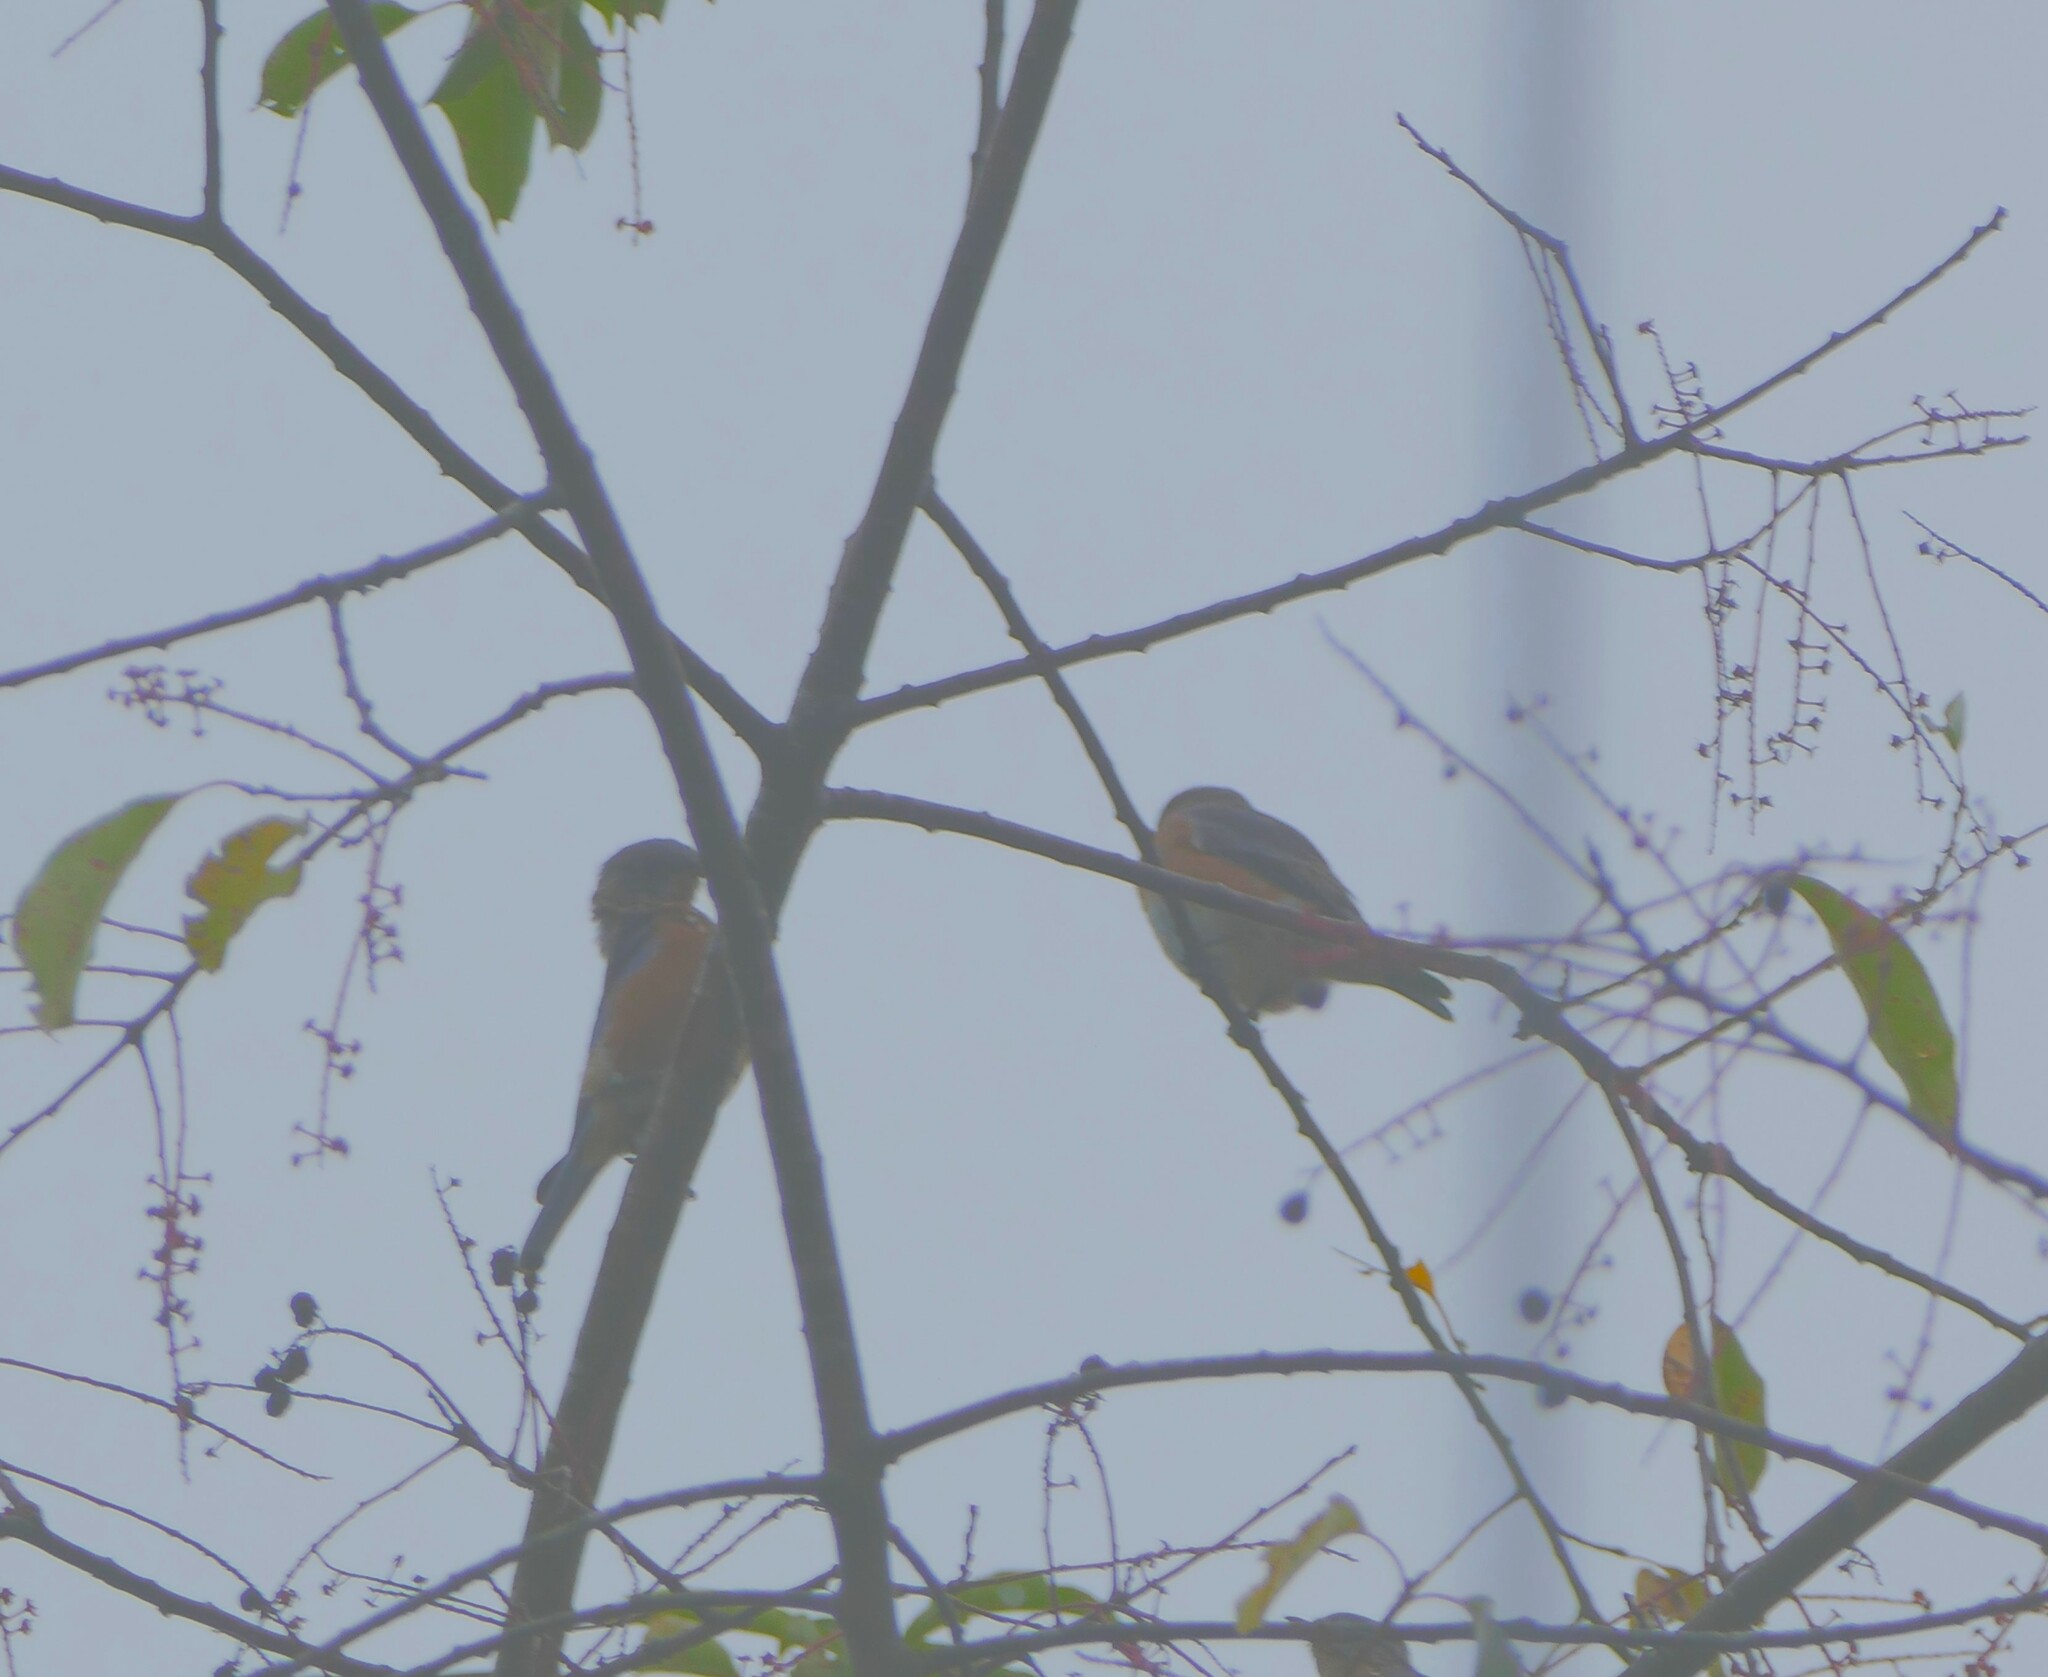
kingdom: Animalia
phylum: Chordata
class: Aves
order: Passeriformes
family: Turdidae
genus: Sialia
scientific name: Sialia sialis
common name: Eastern bluebird
